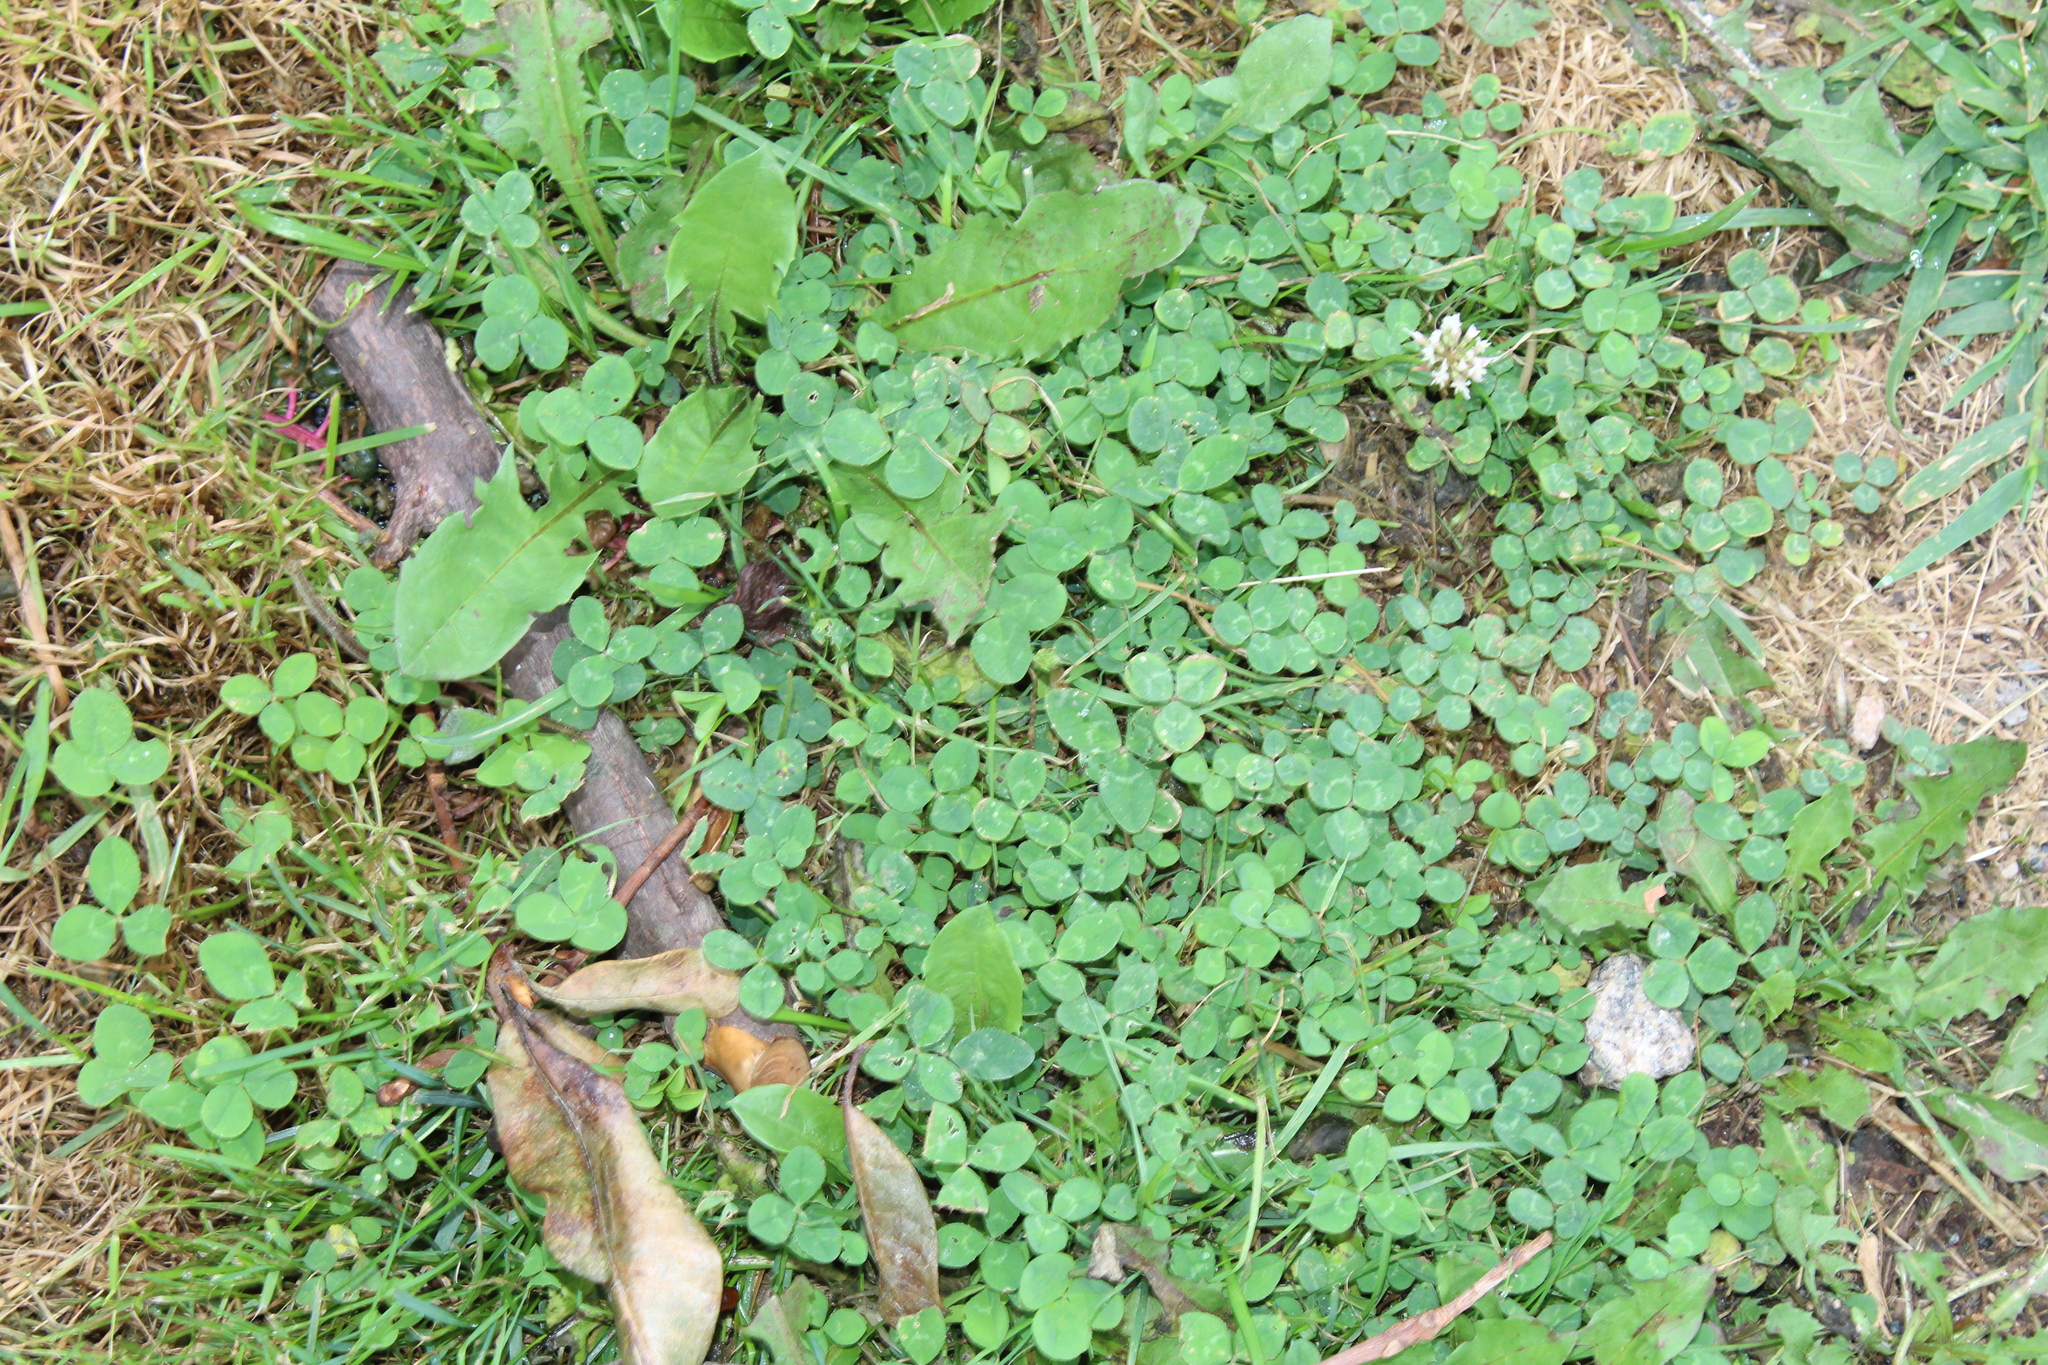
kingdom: Plantae
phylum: Tracheophyta
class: Magnoliopsida
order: Fabales
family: Fabaceae
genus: Trifolium
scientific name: Trifolium repens
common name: White clover
